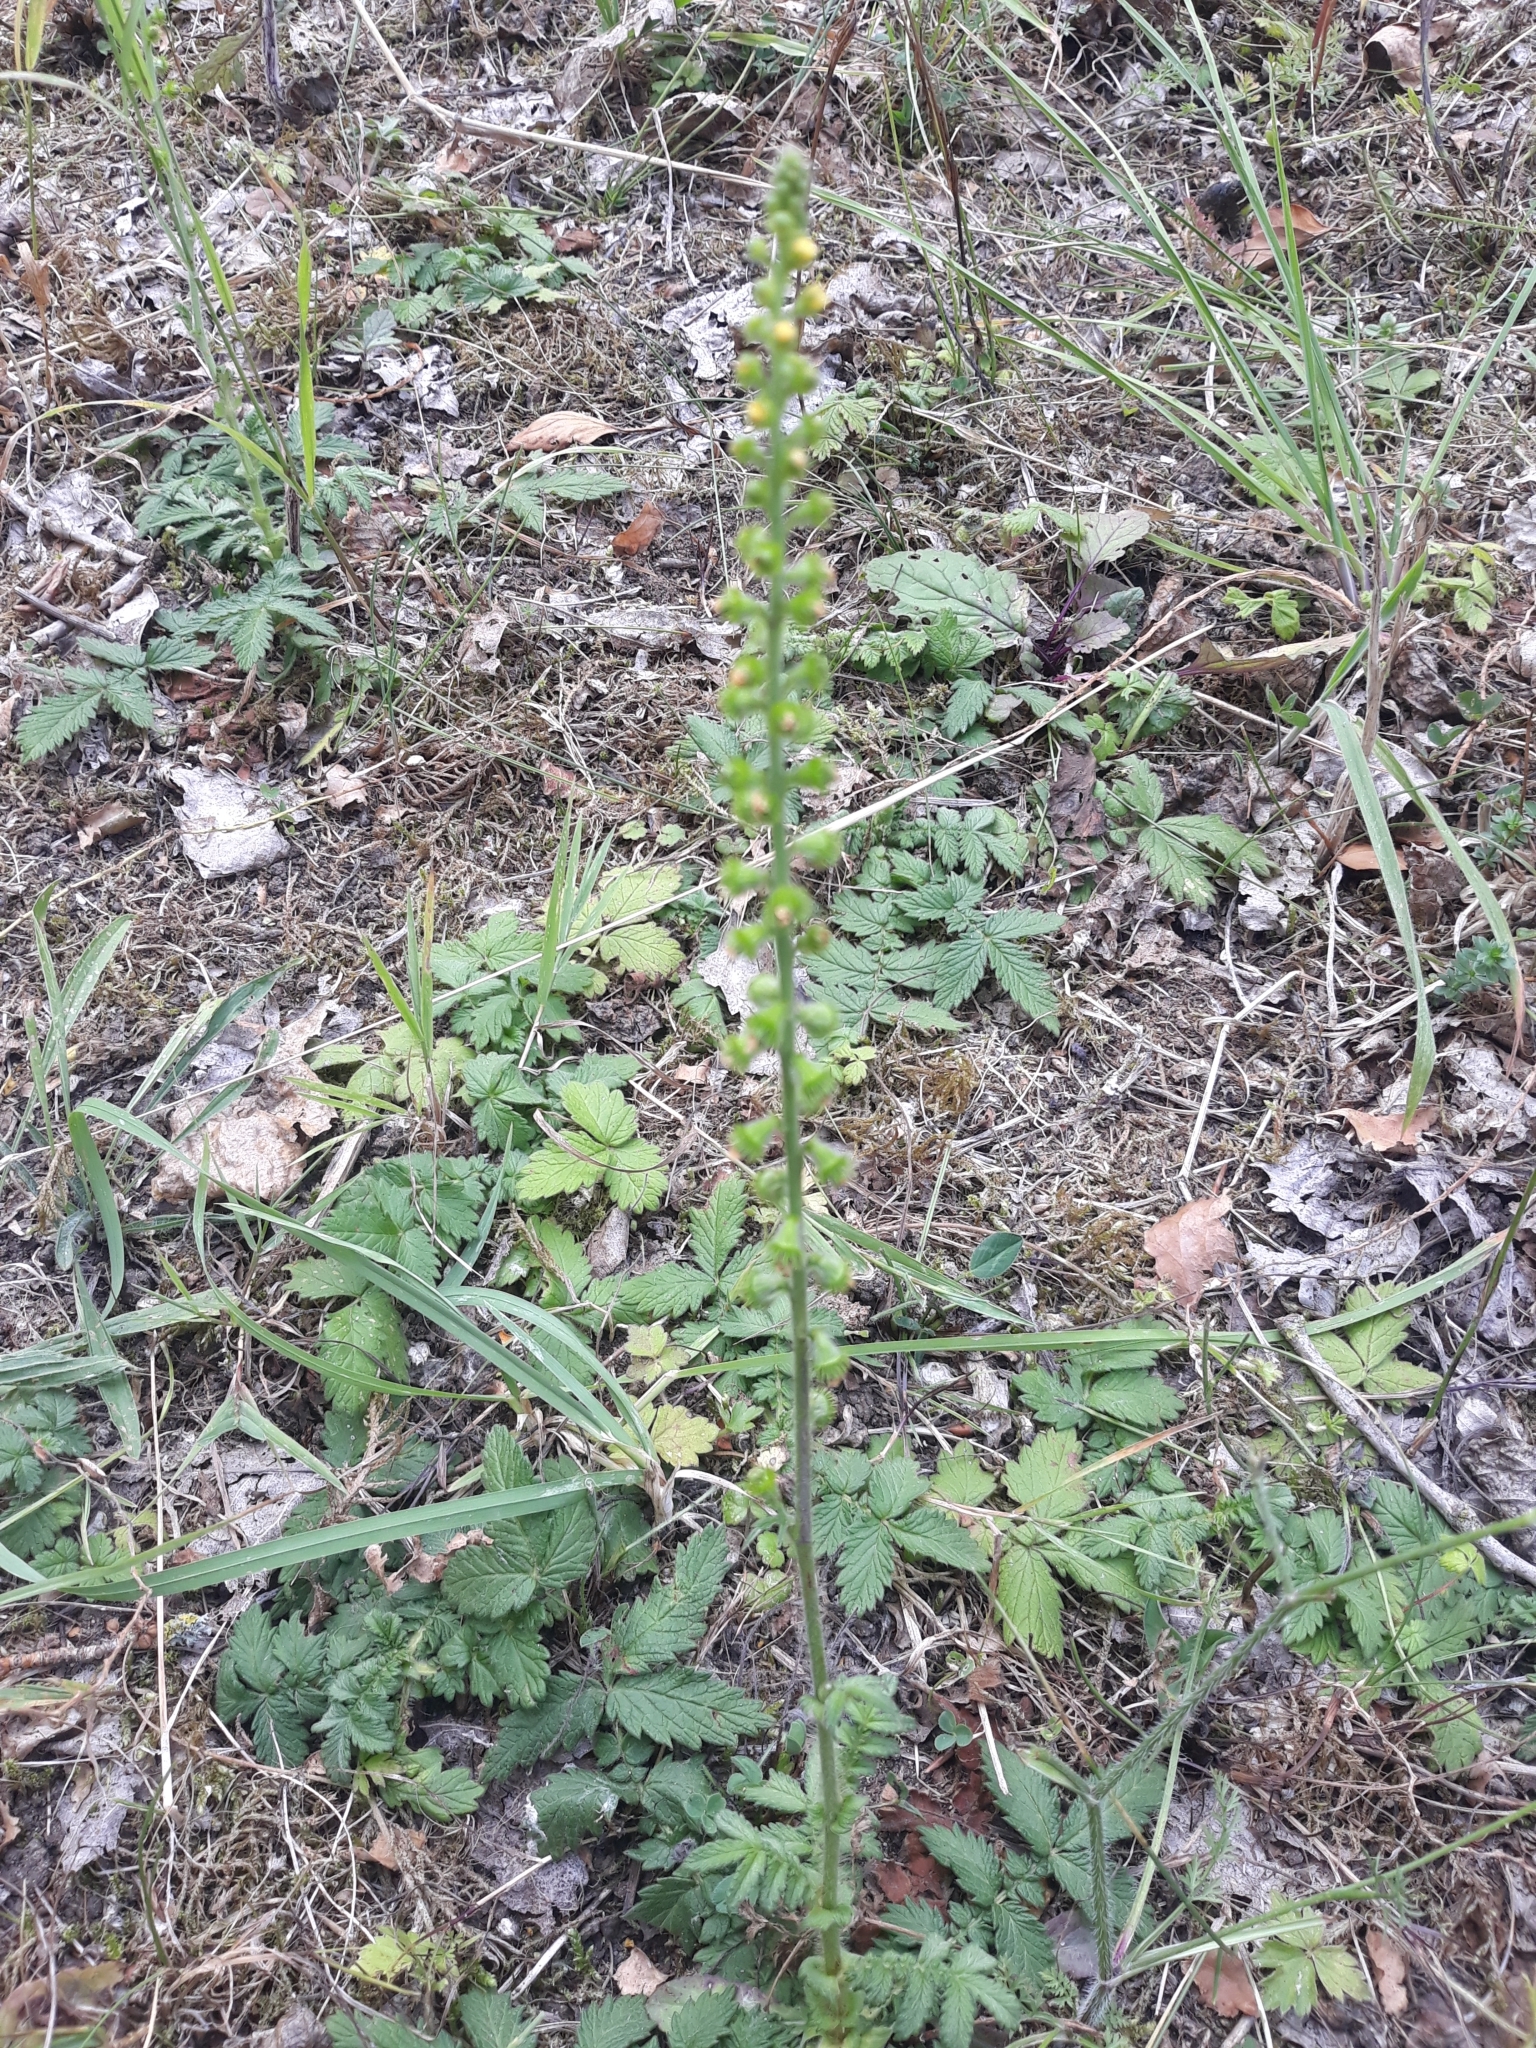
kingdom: Plantae
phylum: Tracheophyta
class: Magnoliopsida
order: Rosales
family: Rosaceae
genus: Agrimonia
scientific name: Agrimonia eupatoria
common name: Agrimony
